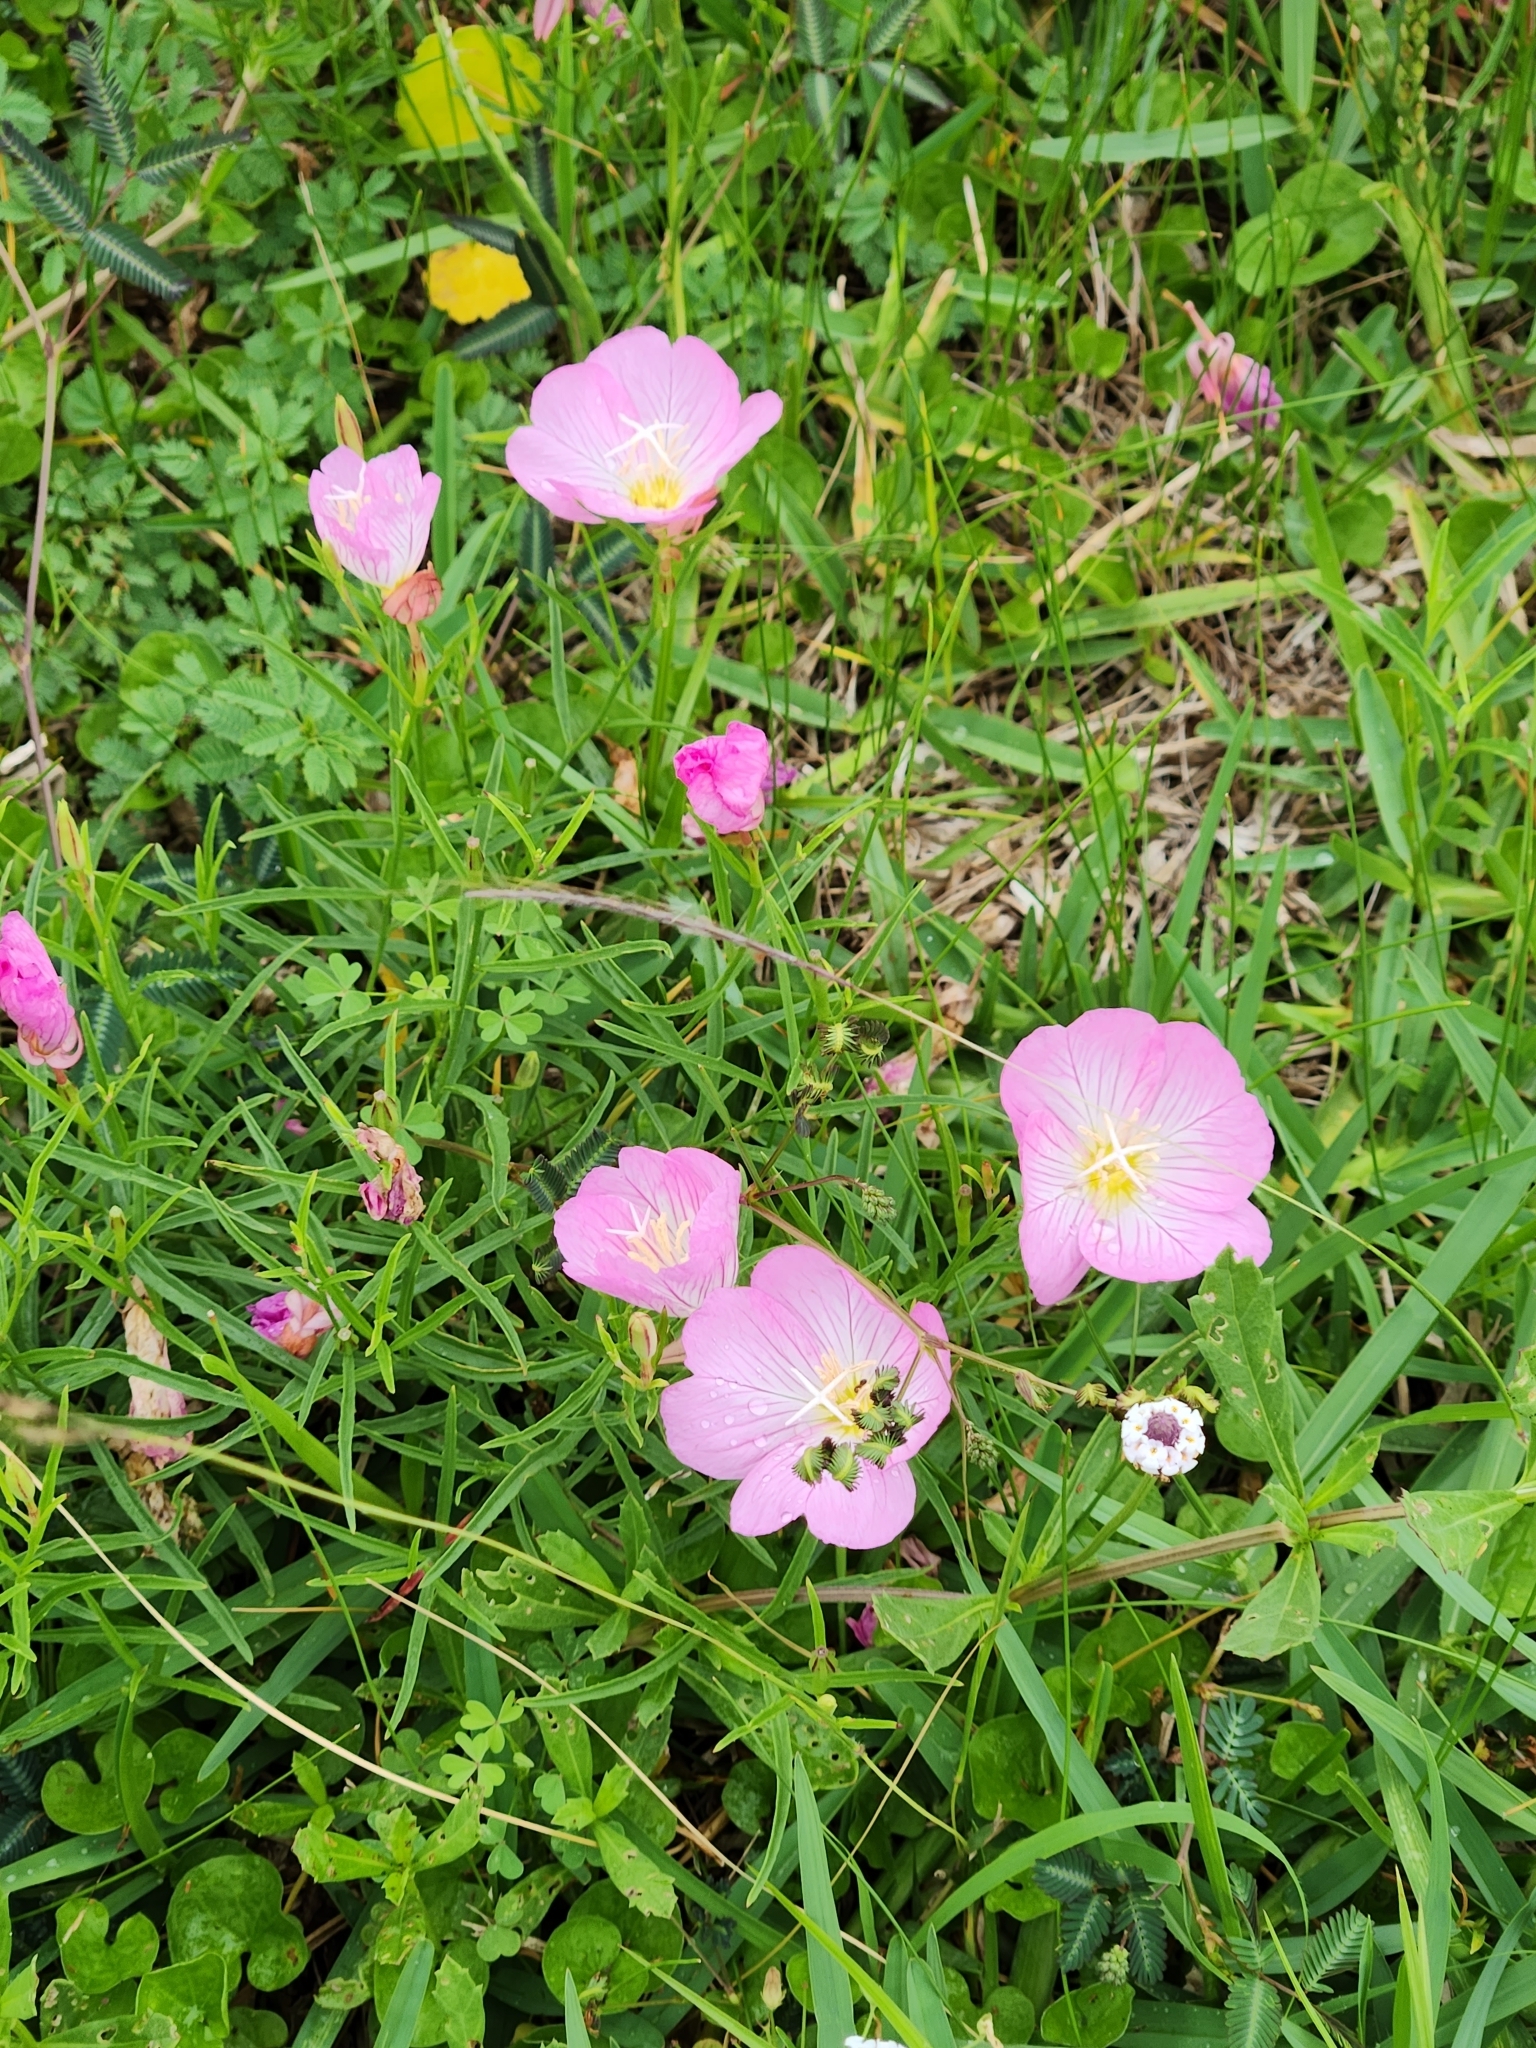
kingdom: Plantae
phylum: Tracheophyta
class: Magnoliopsida
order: Myrtales
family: Onagraceae
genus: Oenothera
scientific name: Oenothera speciosa
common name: White evening-primrose
